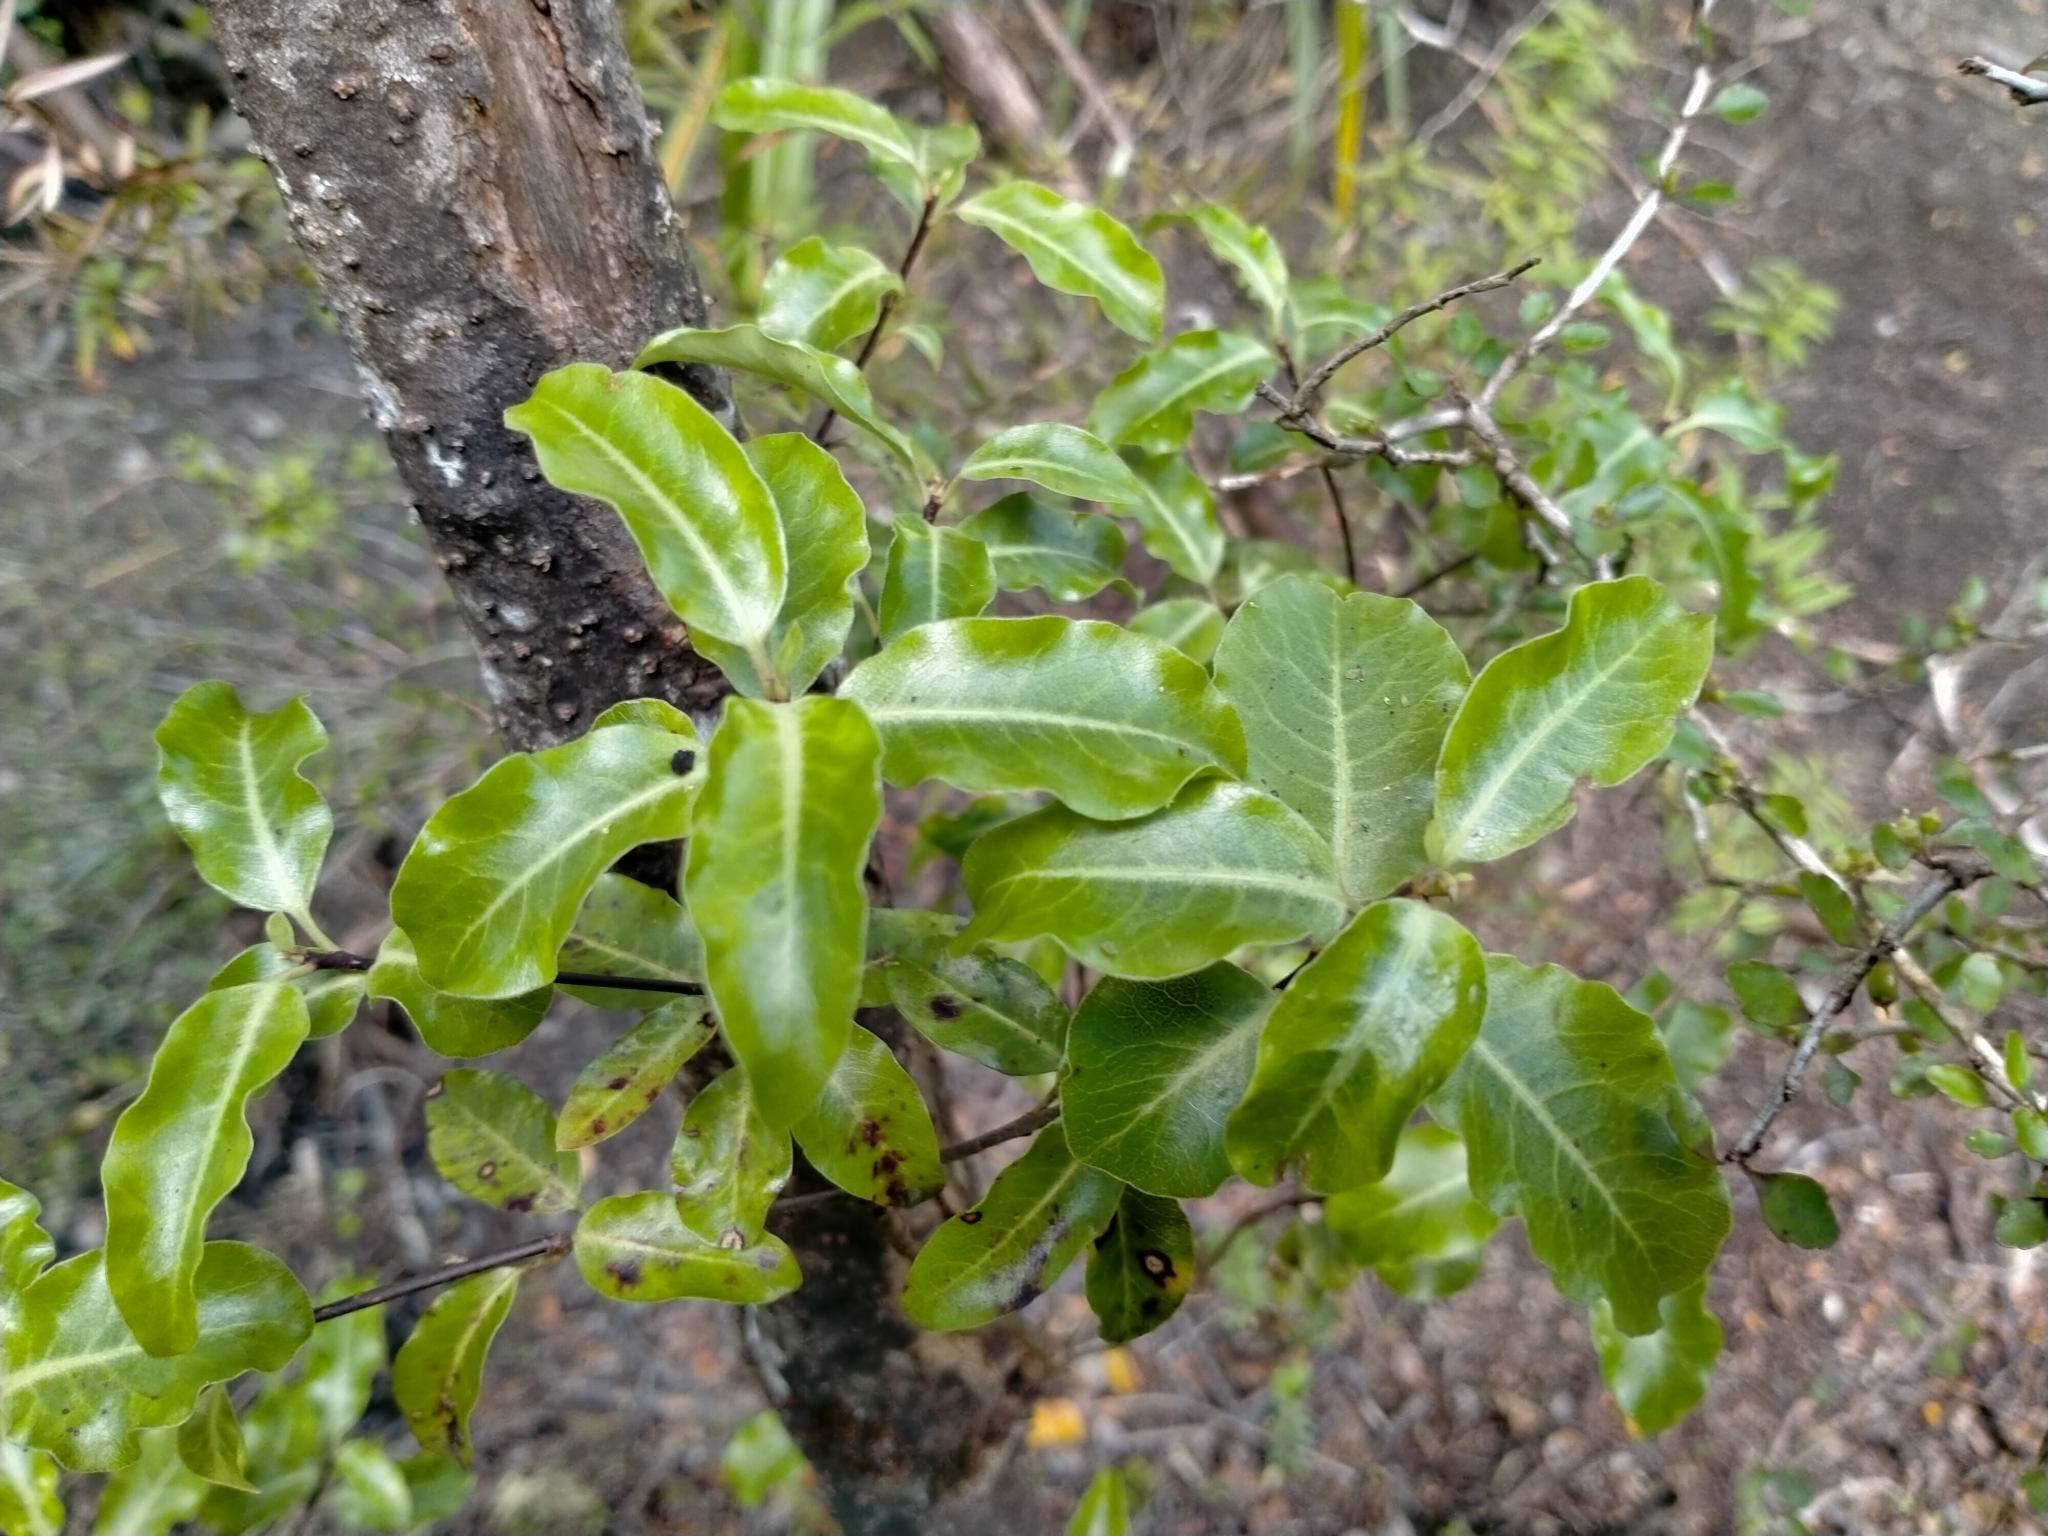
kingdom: Plantae
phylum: Tracheophyta
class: Magnoliopsida
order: Apiales
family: Pittosporaceae
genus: Pittosporum
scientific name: Pittosporum tenuifolium
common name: Kohuhu
